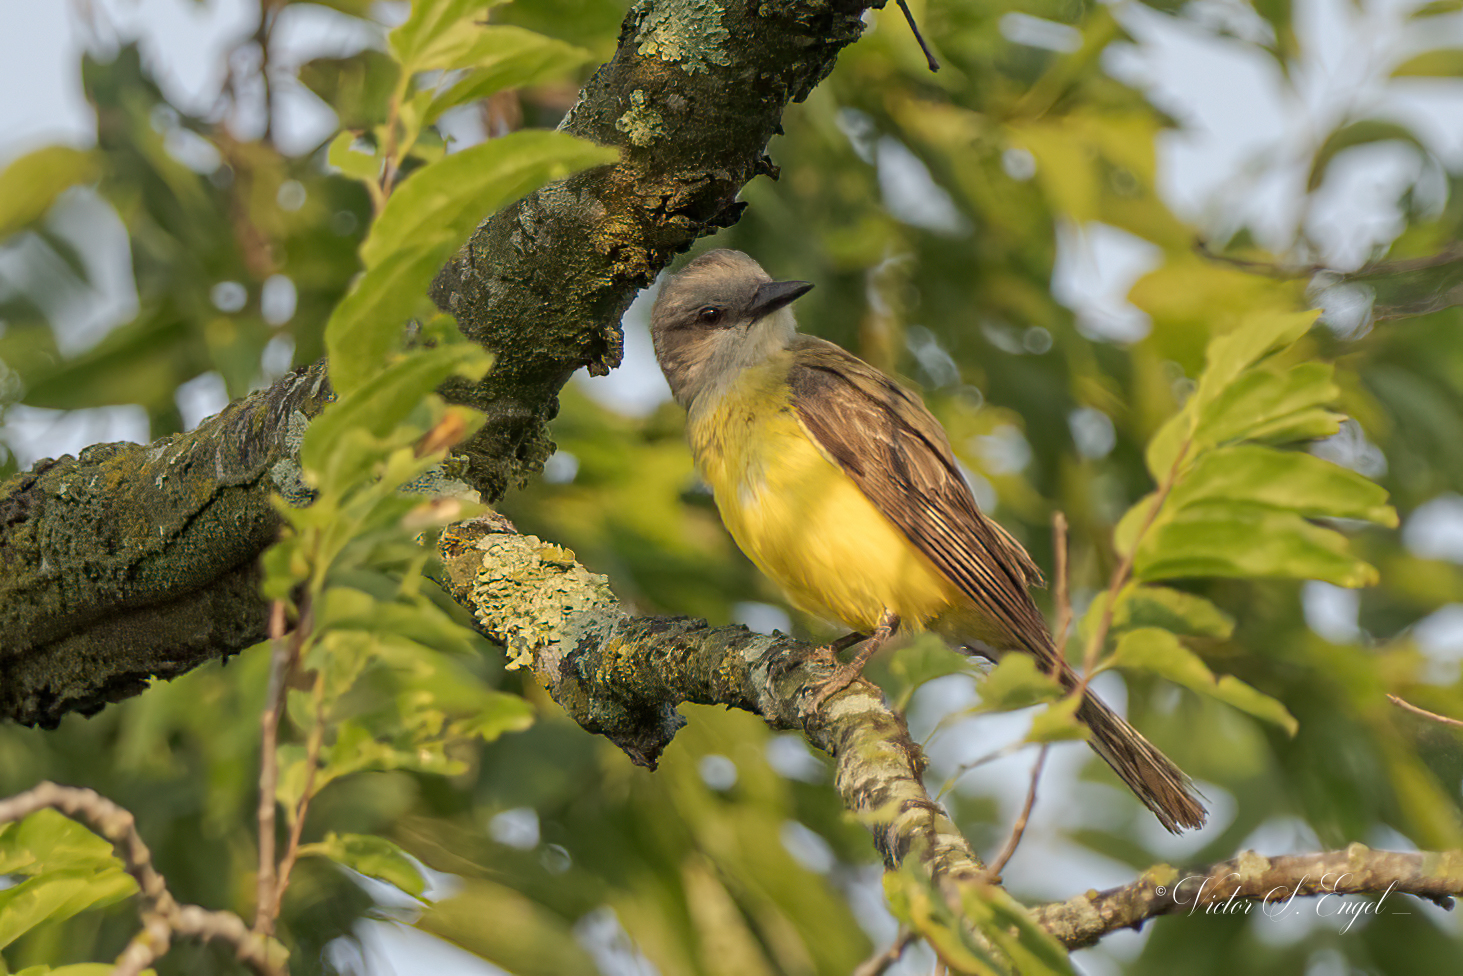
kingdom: Animalia
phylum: Chordata
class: Aves
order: Passeriformes
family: Tyrannidae
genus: Tyrannus
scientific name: Tyrannus verticalis
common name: Western kingbird
